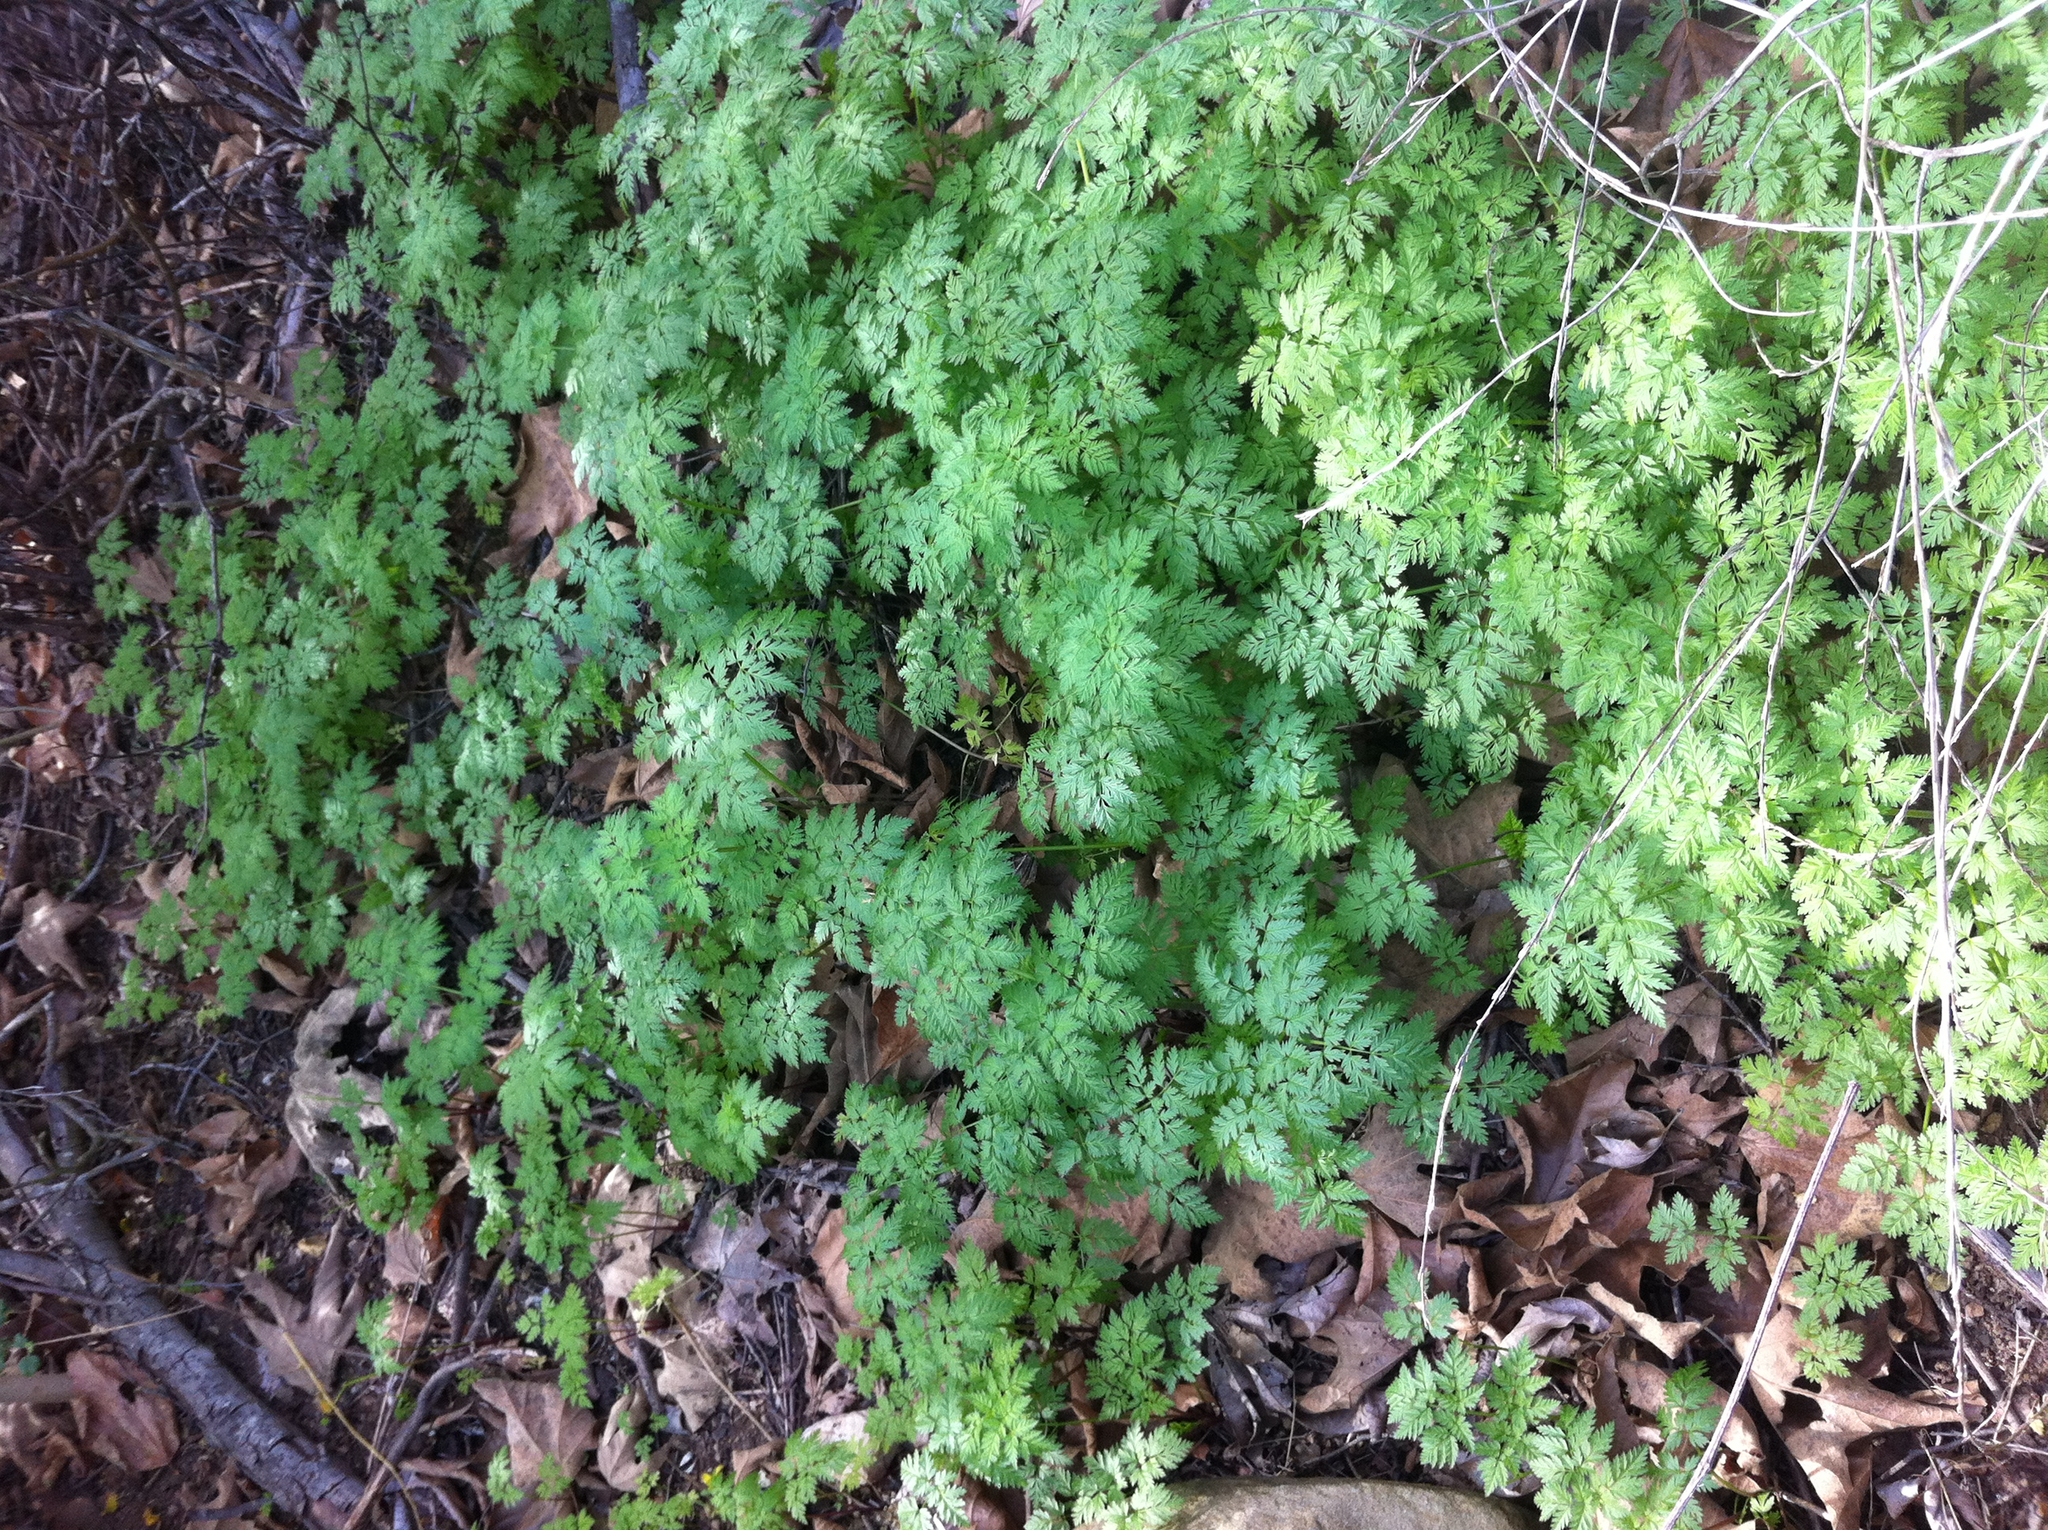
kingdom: Plantae
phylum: Tracheophyta
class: Magnoliopsida
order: Apiales
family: Apiaceae
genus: Conium
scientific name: Conium maculatum
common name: Hemlock
